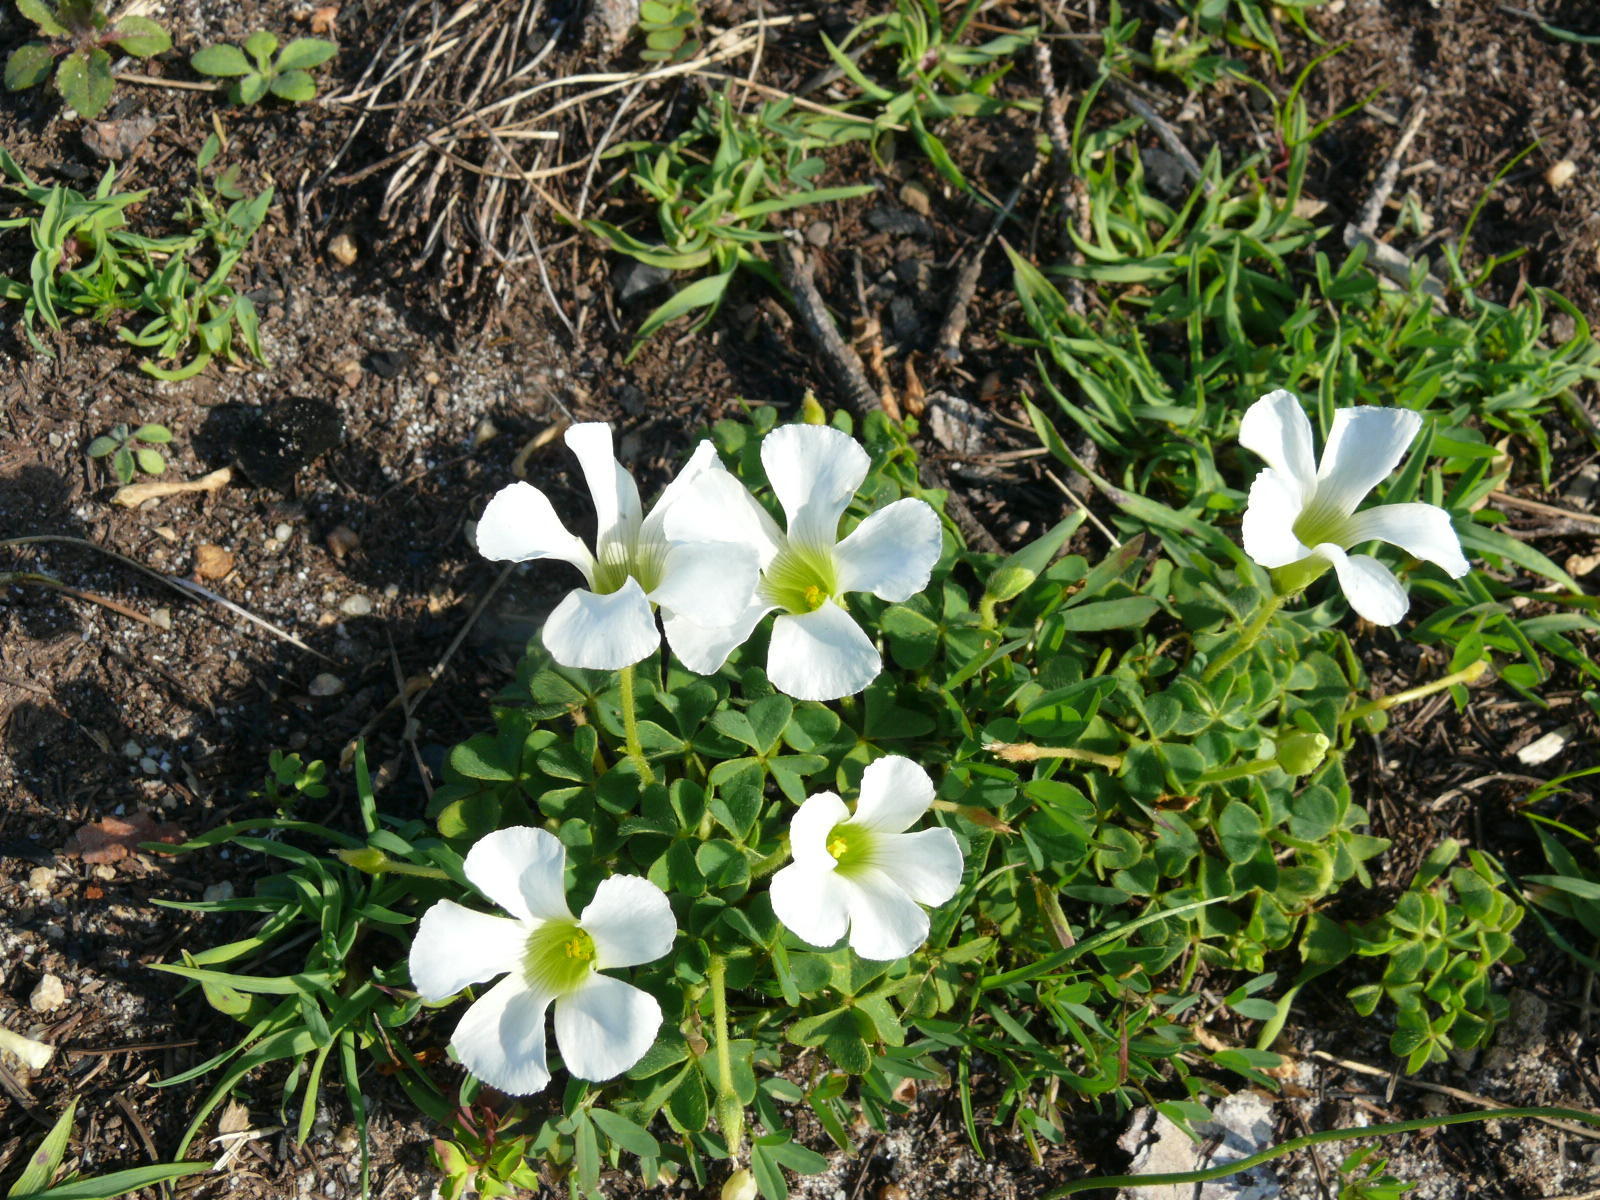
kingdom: Plantae
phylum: Tracheophyta
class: Magnoliopsida
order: Oxalidales
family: Oxalidaceae
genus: Oxalis
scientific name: Oxalis lanata
